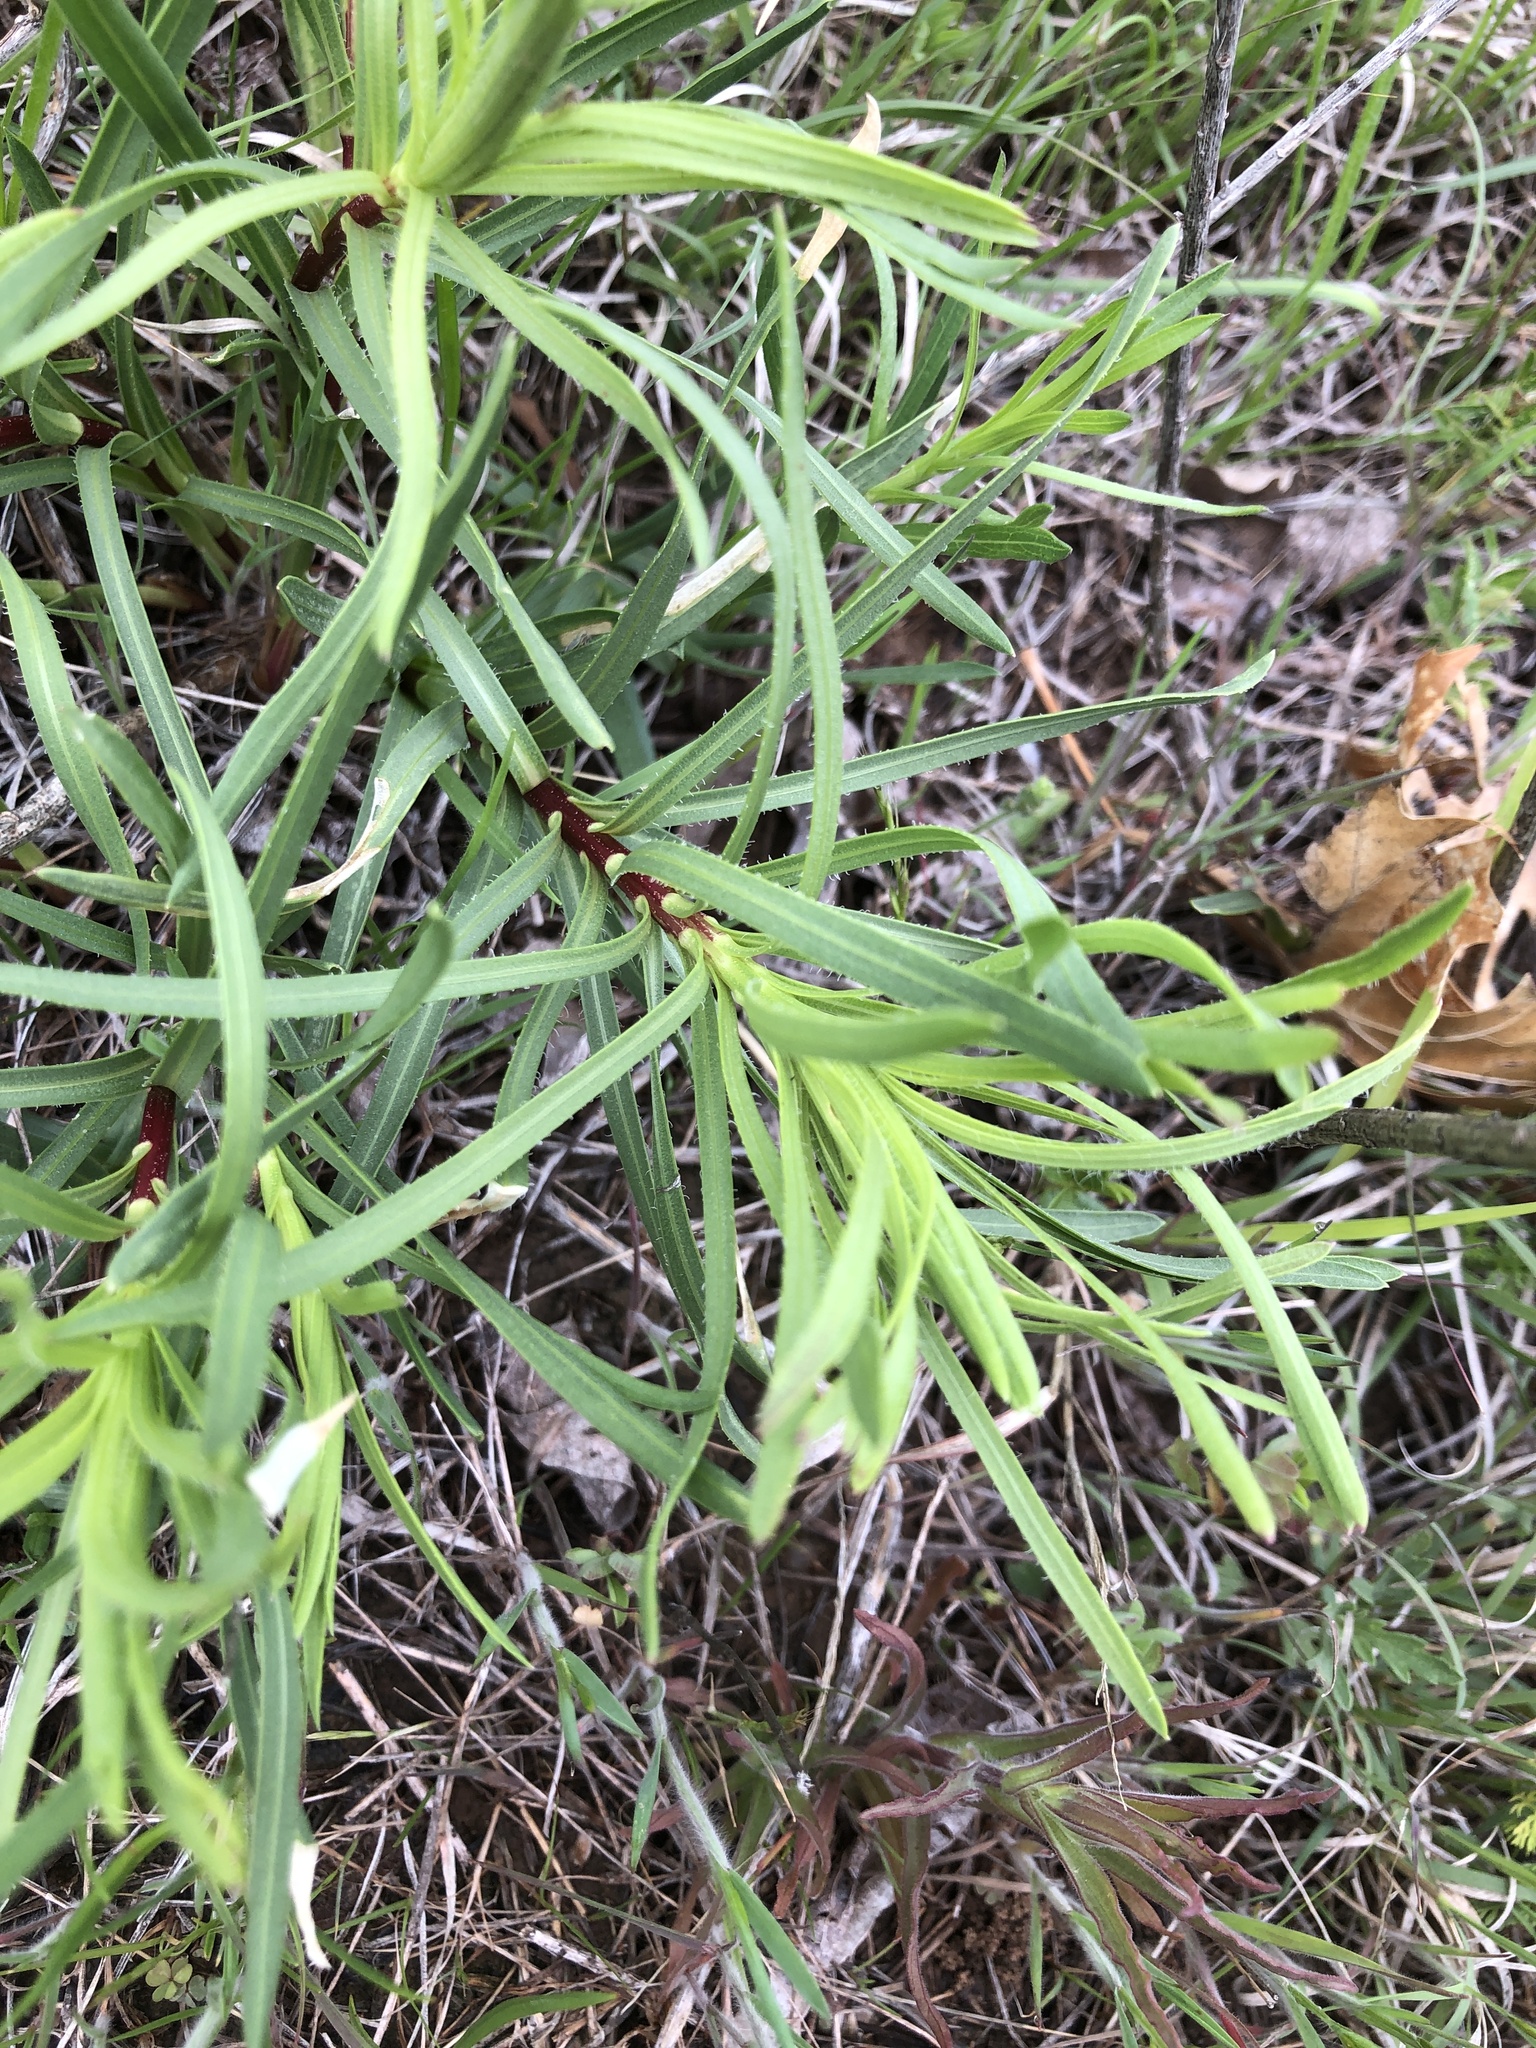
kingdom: Plantae
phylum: Tracheophyta
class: Magnoliopsida
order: Asterales
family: Asteraceae
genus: Liatris
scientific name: Liatris punctata
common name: Dotted gayfeather
